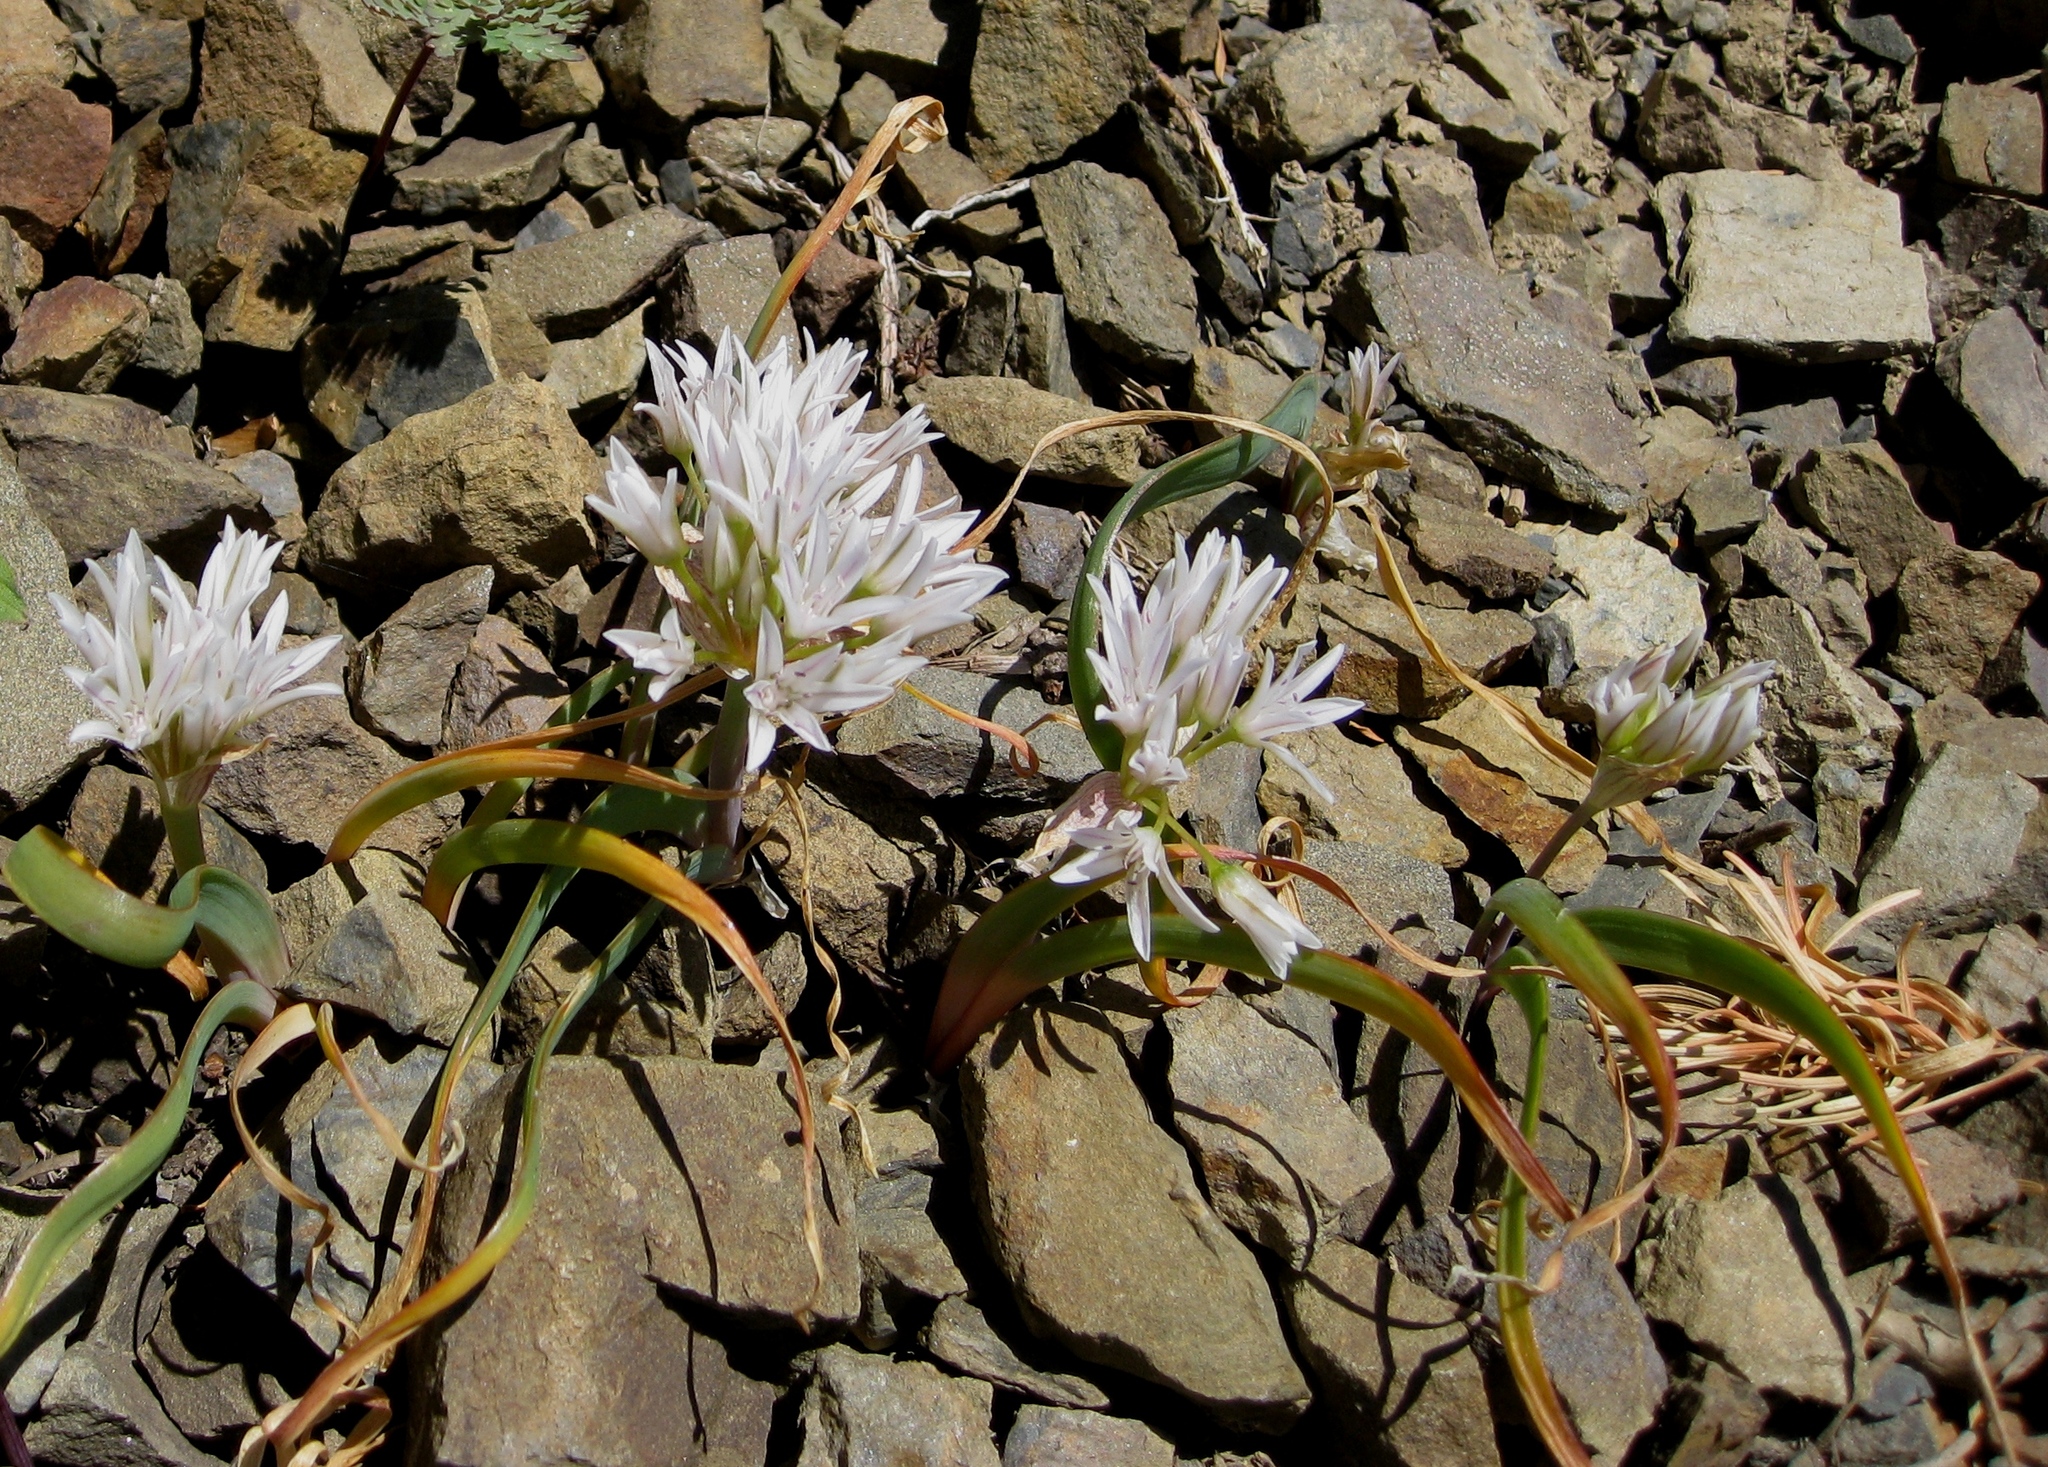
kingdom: Plantae
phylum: Tracheophyta
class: Liliopsida
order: Asparagales
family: Amaryllidaceae
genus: Allium
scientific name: Allium crenulatum
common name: Olympic onion
